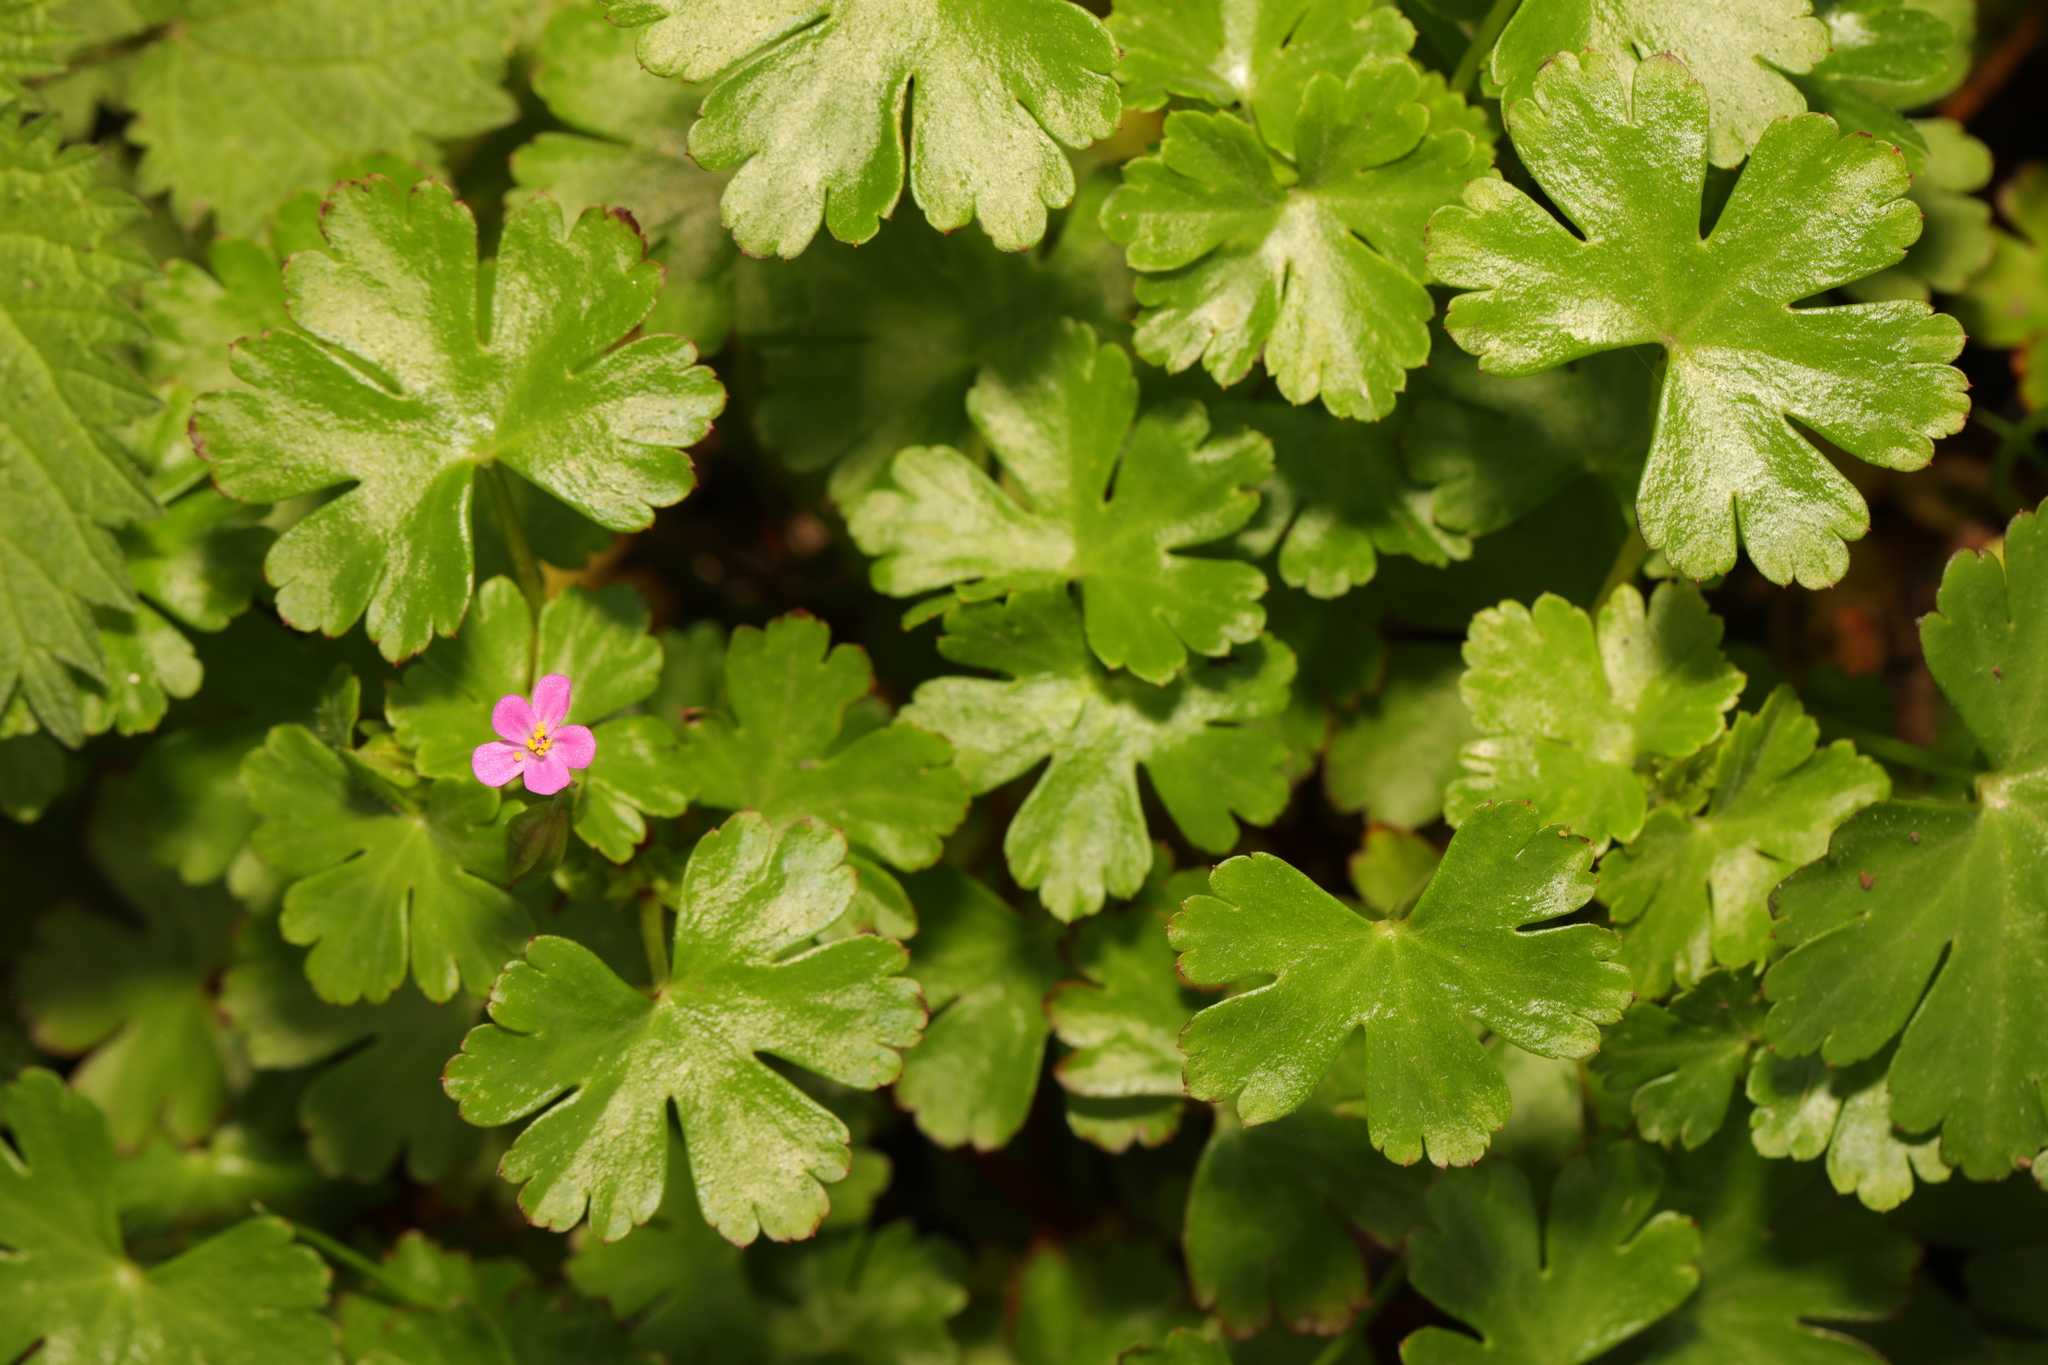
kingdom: Plantae
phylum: Tracheophyta
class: Magnoliopsida
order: Geraniales
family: Geraniaceae
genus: Geranium
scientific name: Geranium lucidum
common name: Shining crane's-bill
